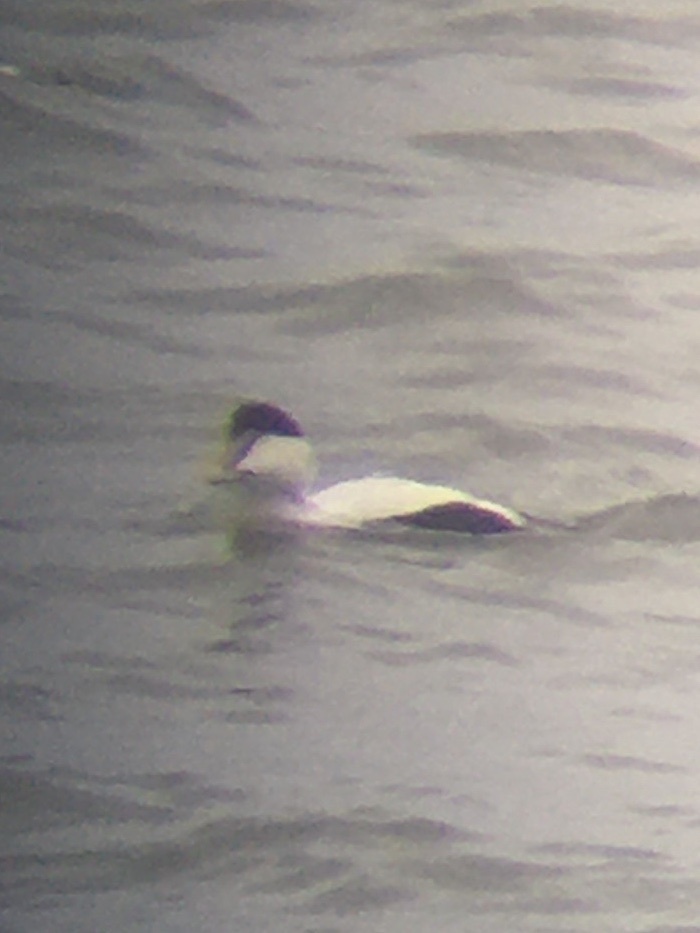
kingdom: Animalia
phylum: Chordata
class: Aves
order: Anseriformes
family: Anatidae
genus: Somateria
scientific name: Somateria mollissima
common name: Common eider
